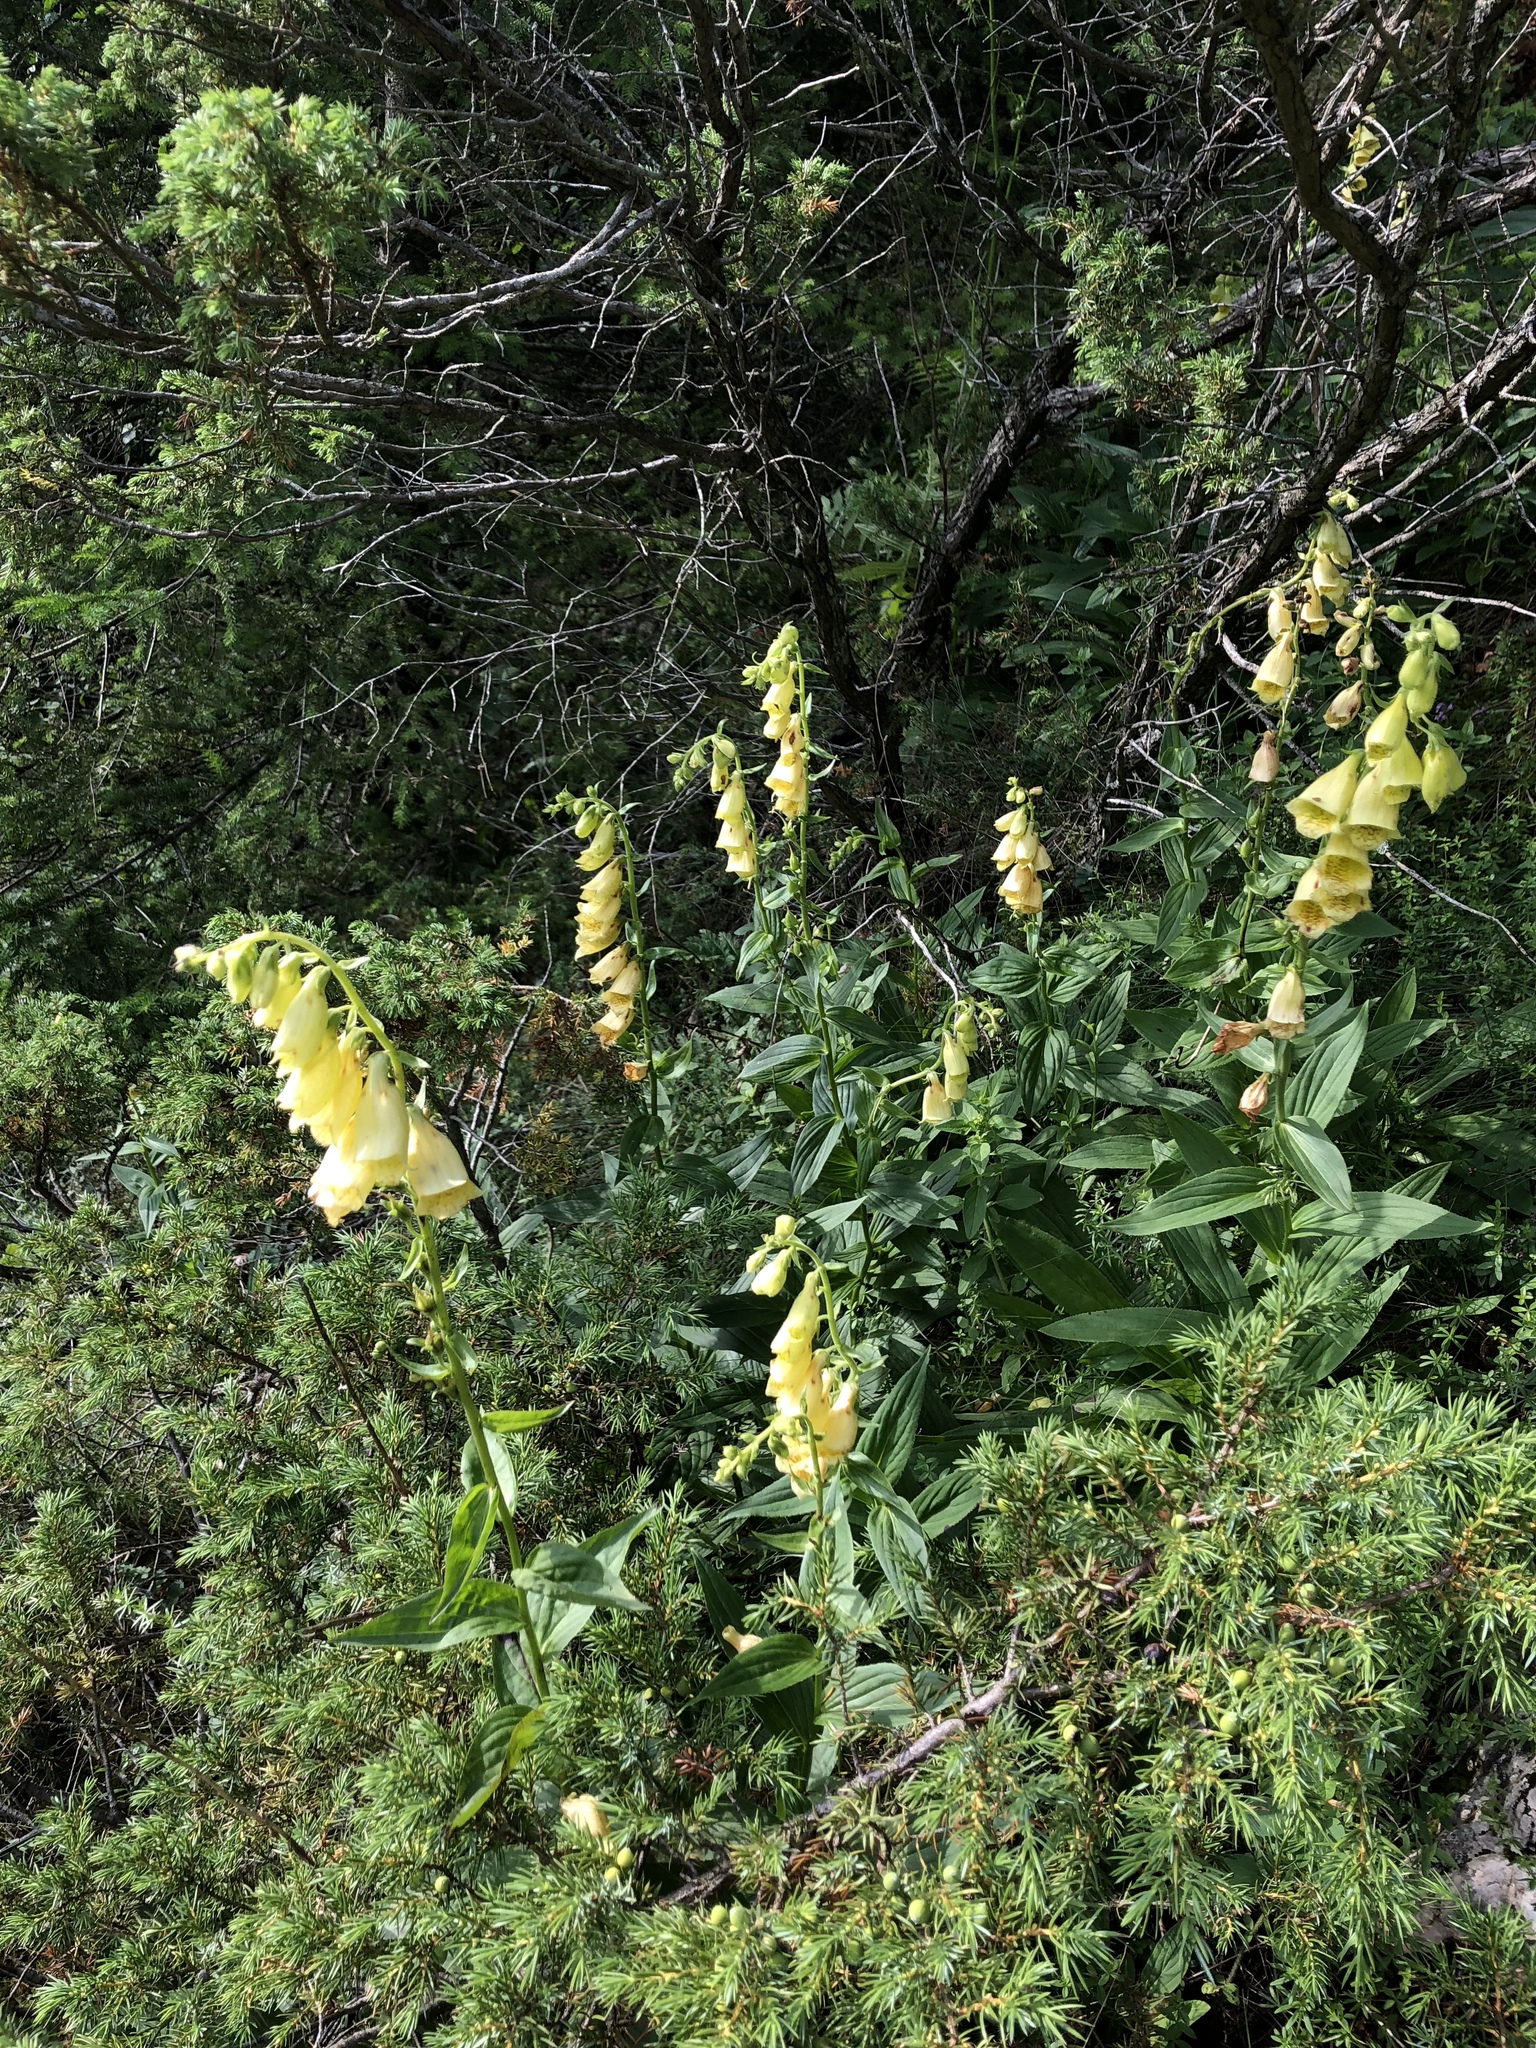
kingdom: Plantae
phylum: Tracheophyta
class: Magnoliopsida
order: Lamiales
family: Plantaginaceae
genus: Digitalis
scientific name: Digitalis grandiflora
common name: Yellow foxglove
